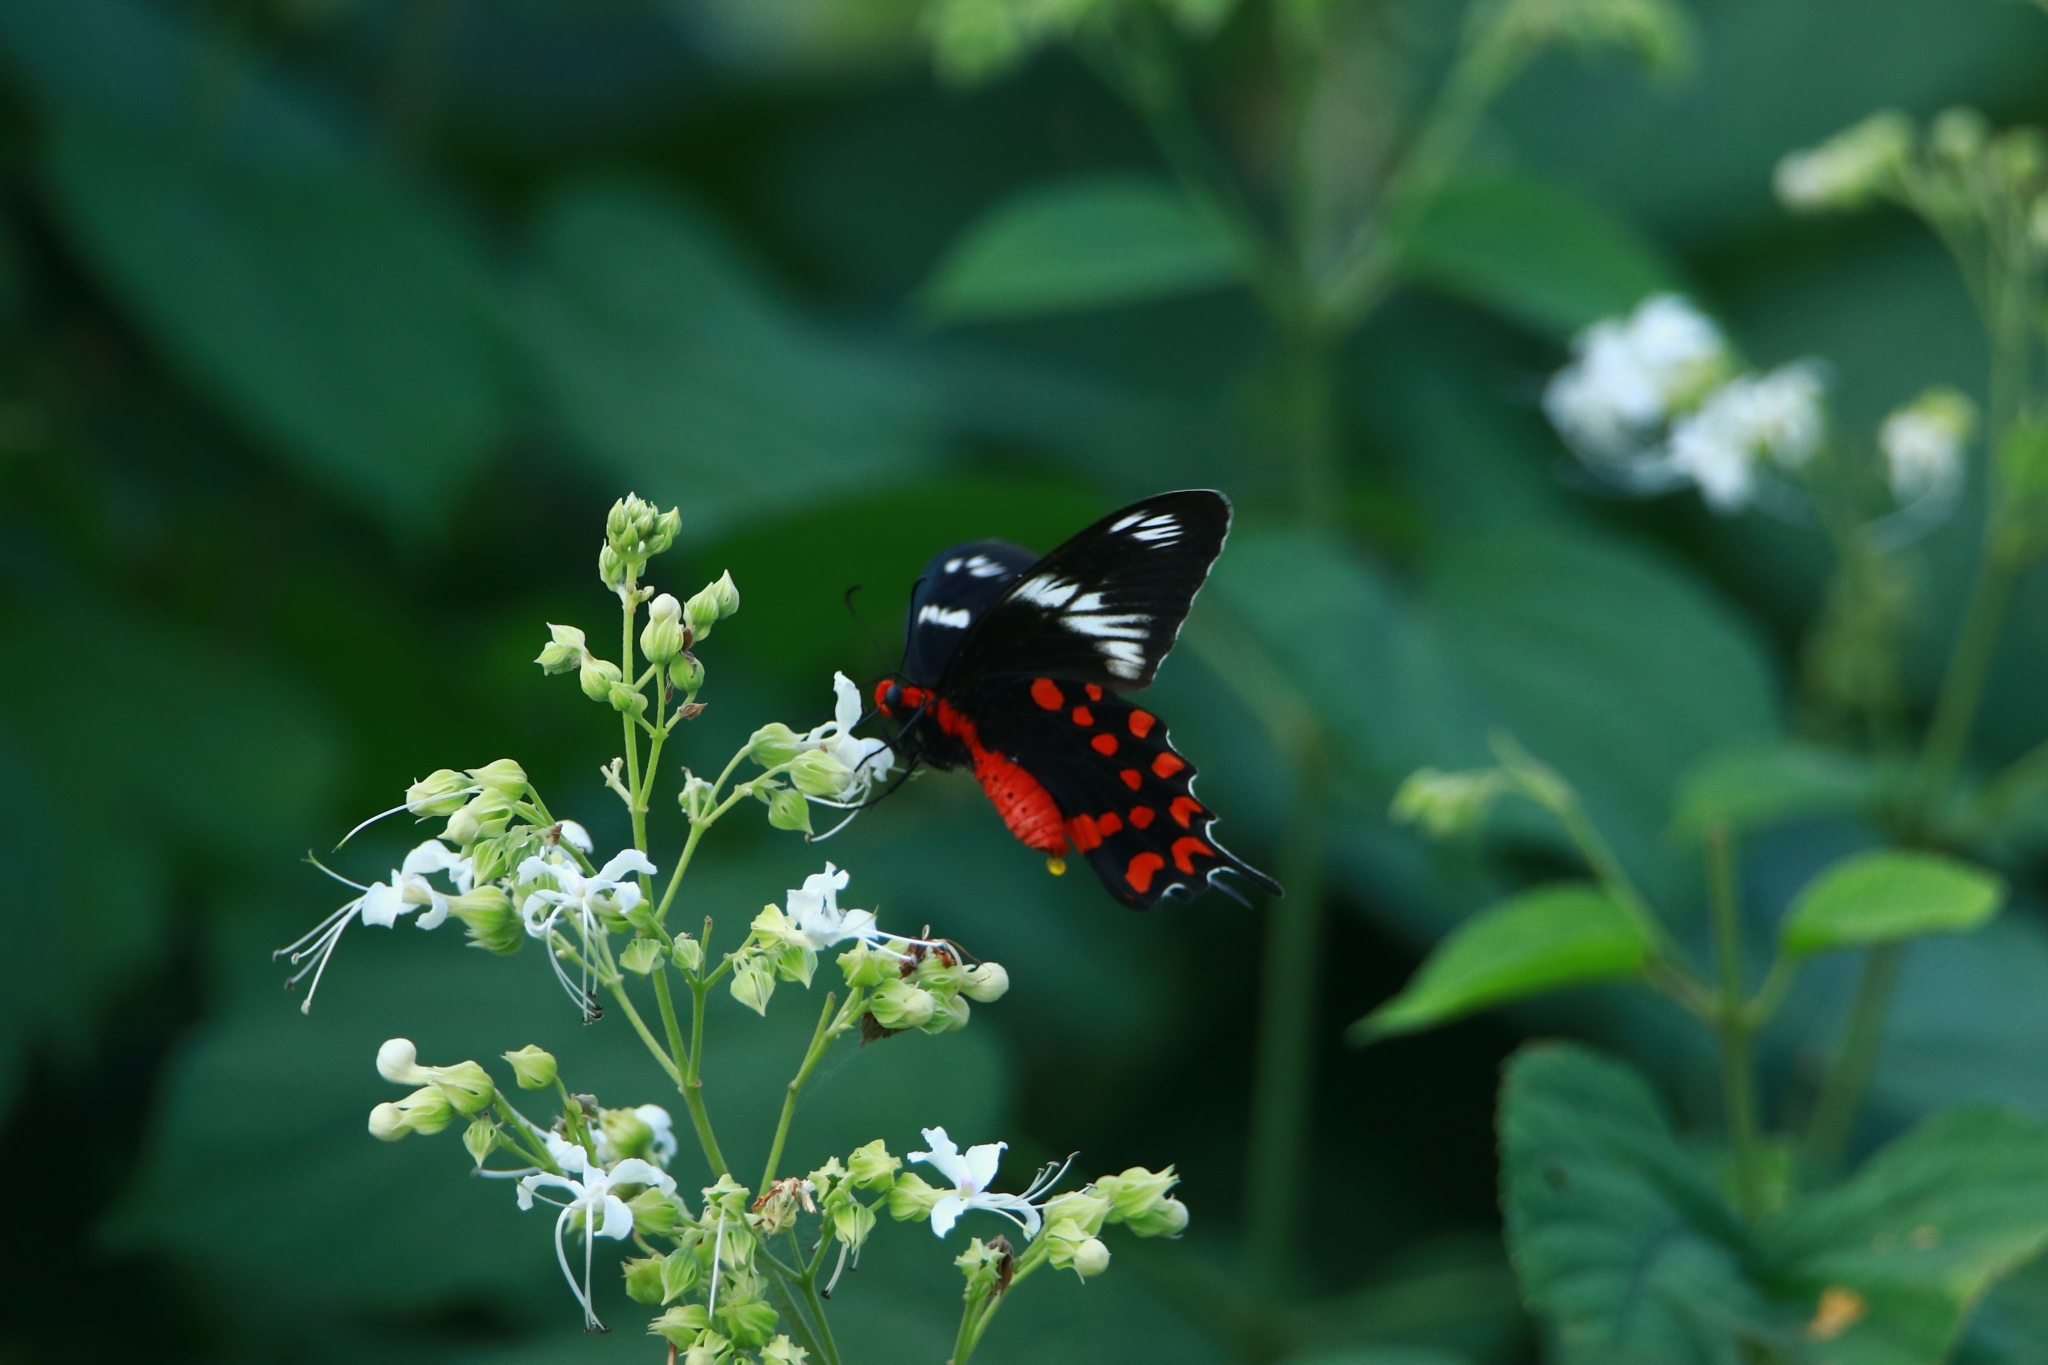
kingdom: Animalia
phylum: Arthropoda
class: Insecta
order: Lepidoptera
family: Papilionidae
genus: Pachliopta
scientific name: Pachliopta hector
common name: Crimson rose
